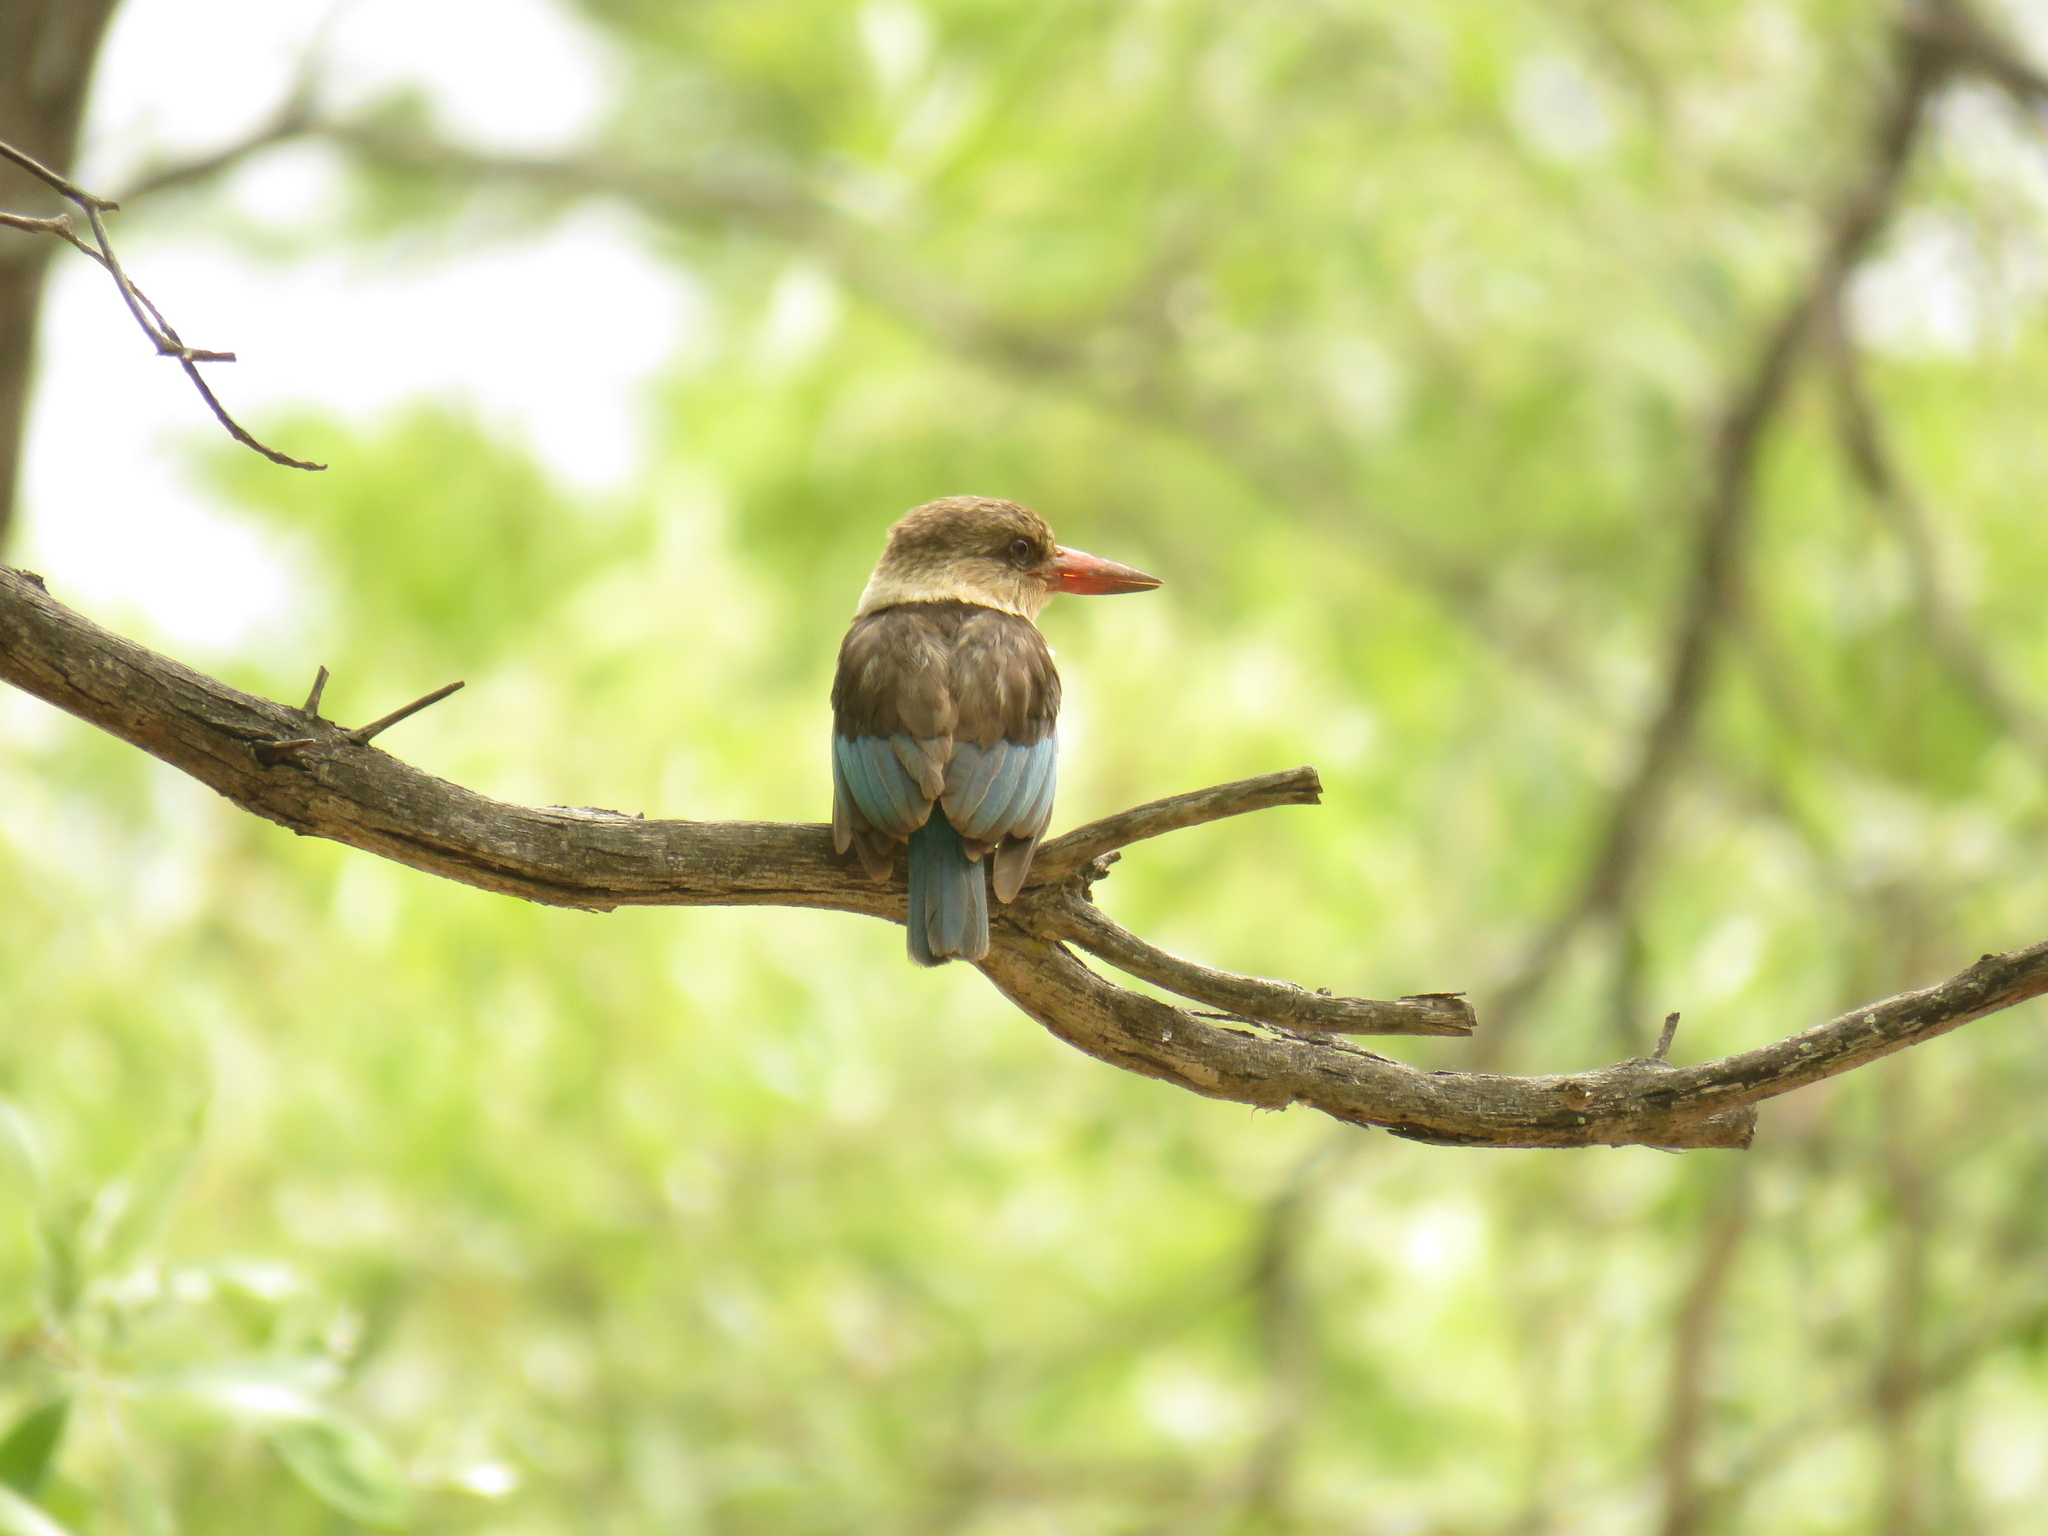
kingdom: Animalia
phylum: Chordata
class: Aves
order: Coraciiformes
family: Alcedinidae
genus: Halcyon
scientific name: Halcyon albiventris
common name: Brown-hooded kingfisher
